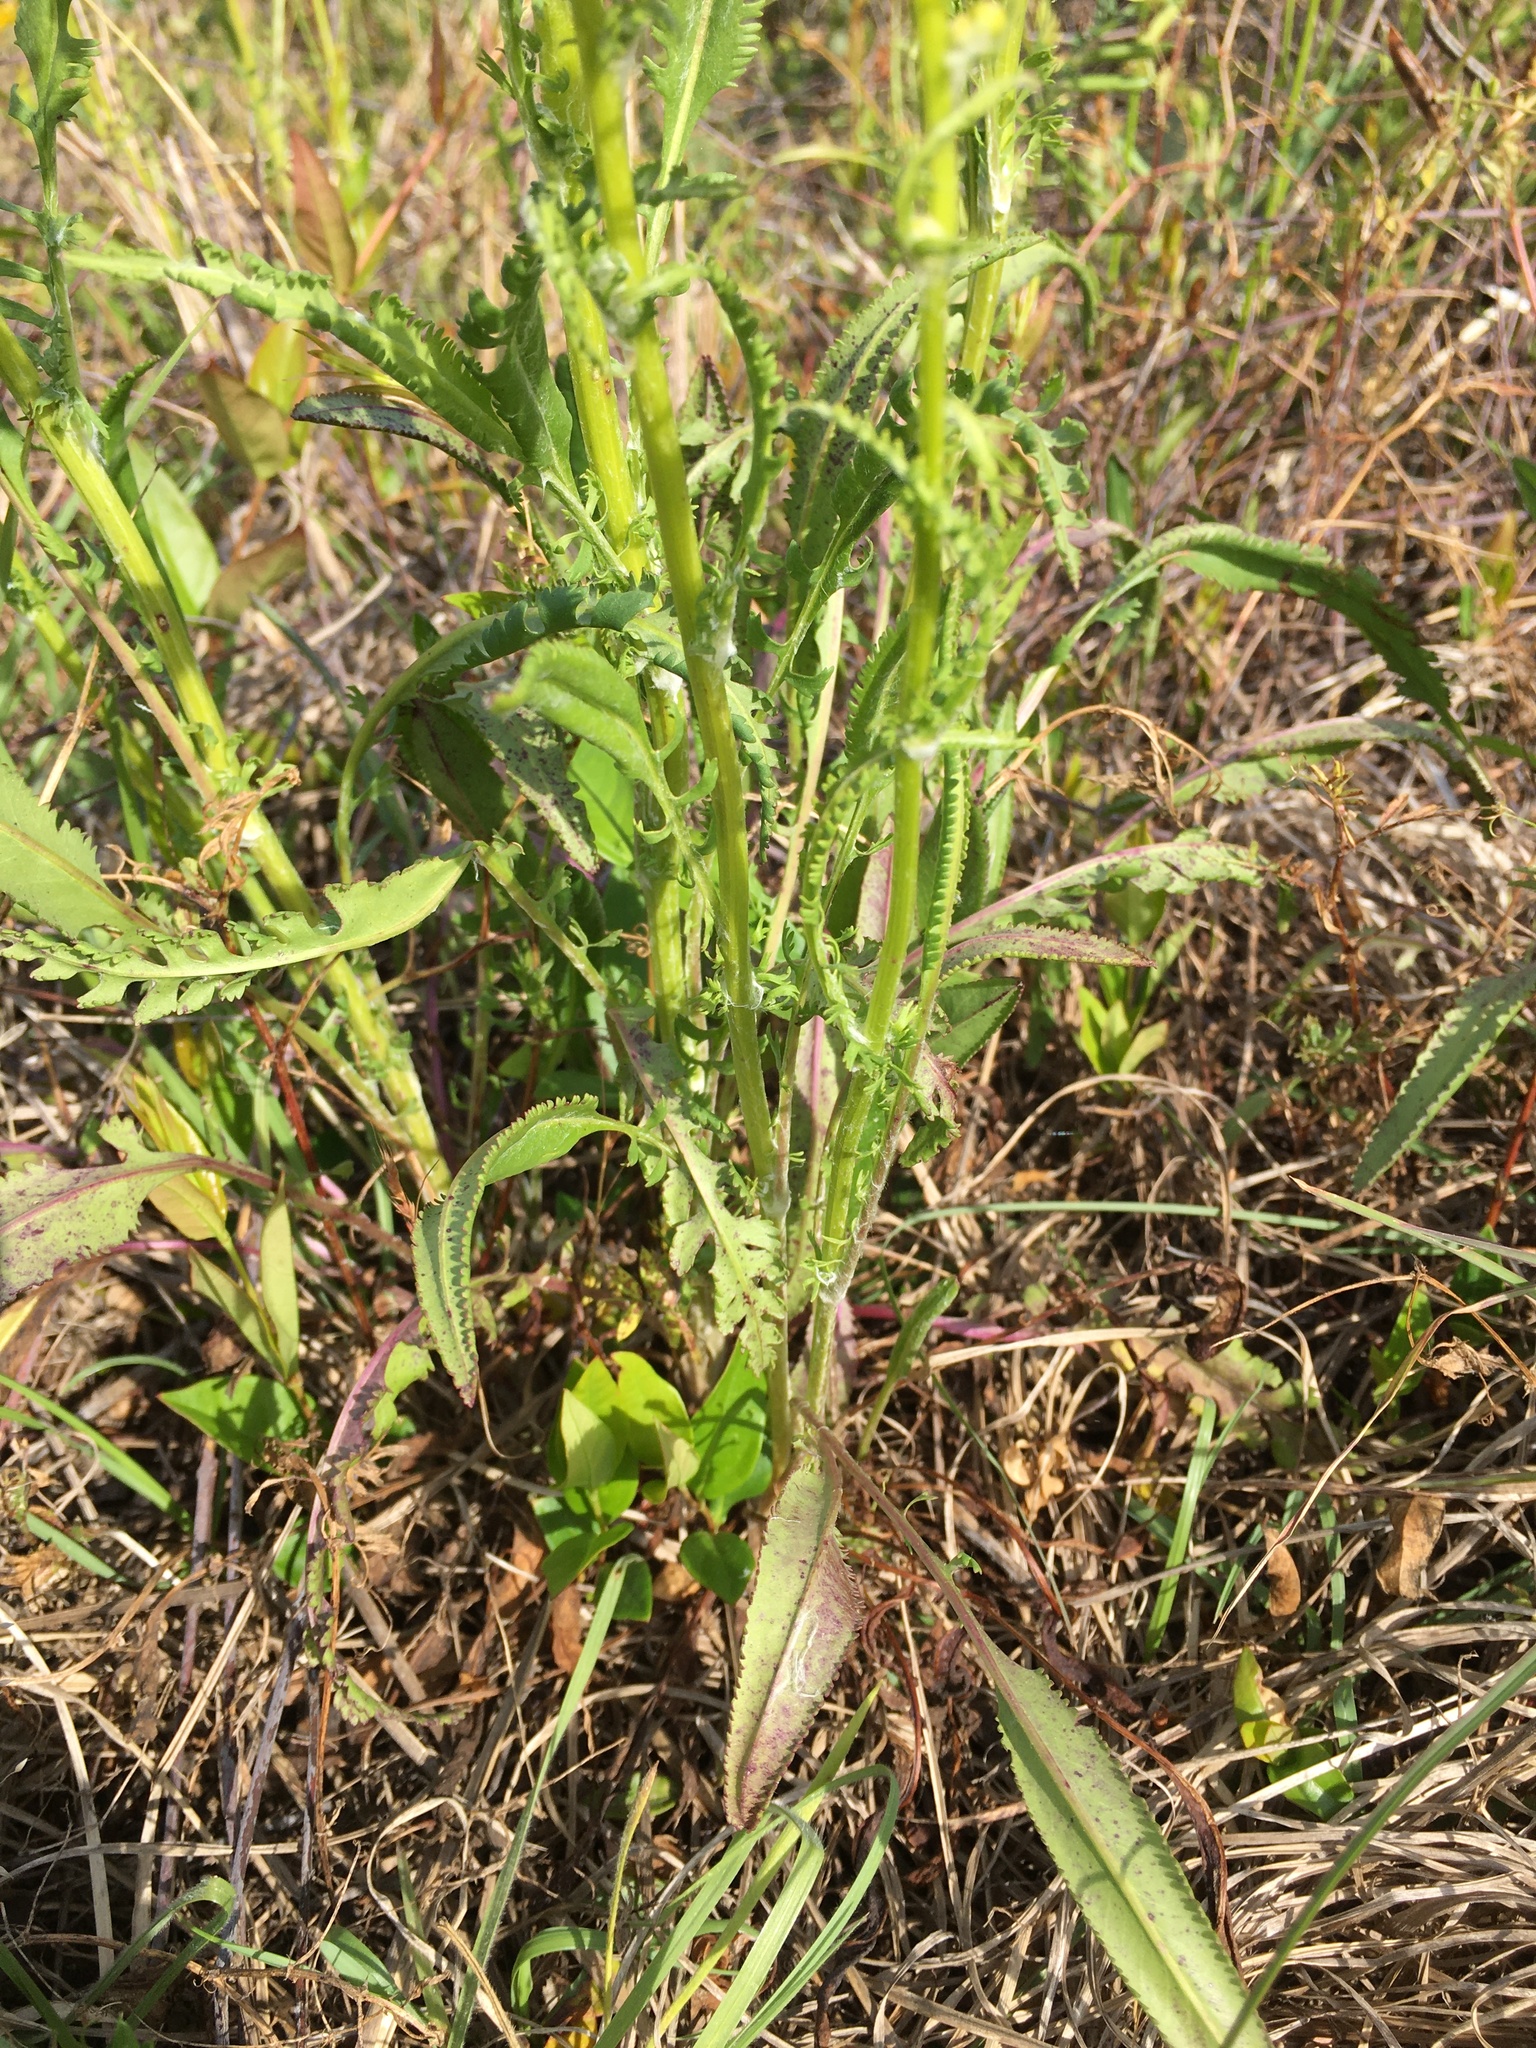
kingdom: Plantae
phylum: Tracheophyta
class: Magnoliopsida
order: Asterales
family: Asteraceae
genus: Packera
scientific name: Packera anonyma
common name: Small ragwort
